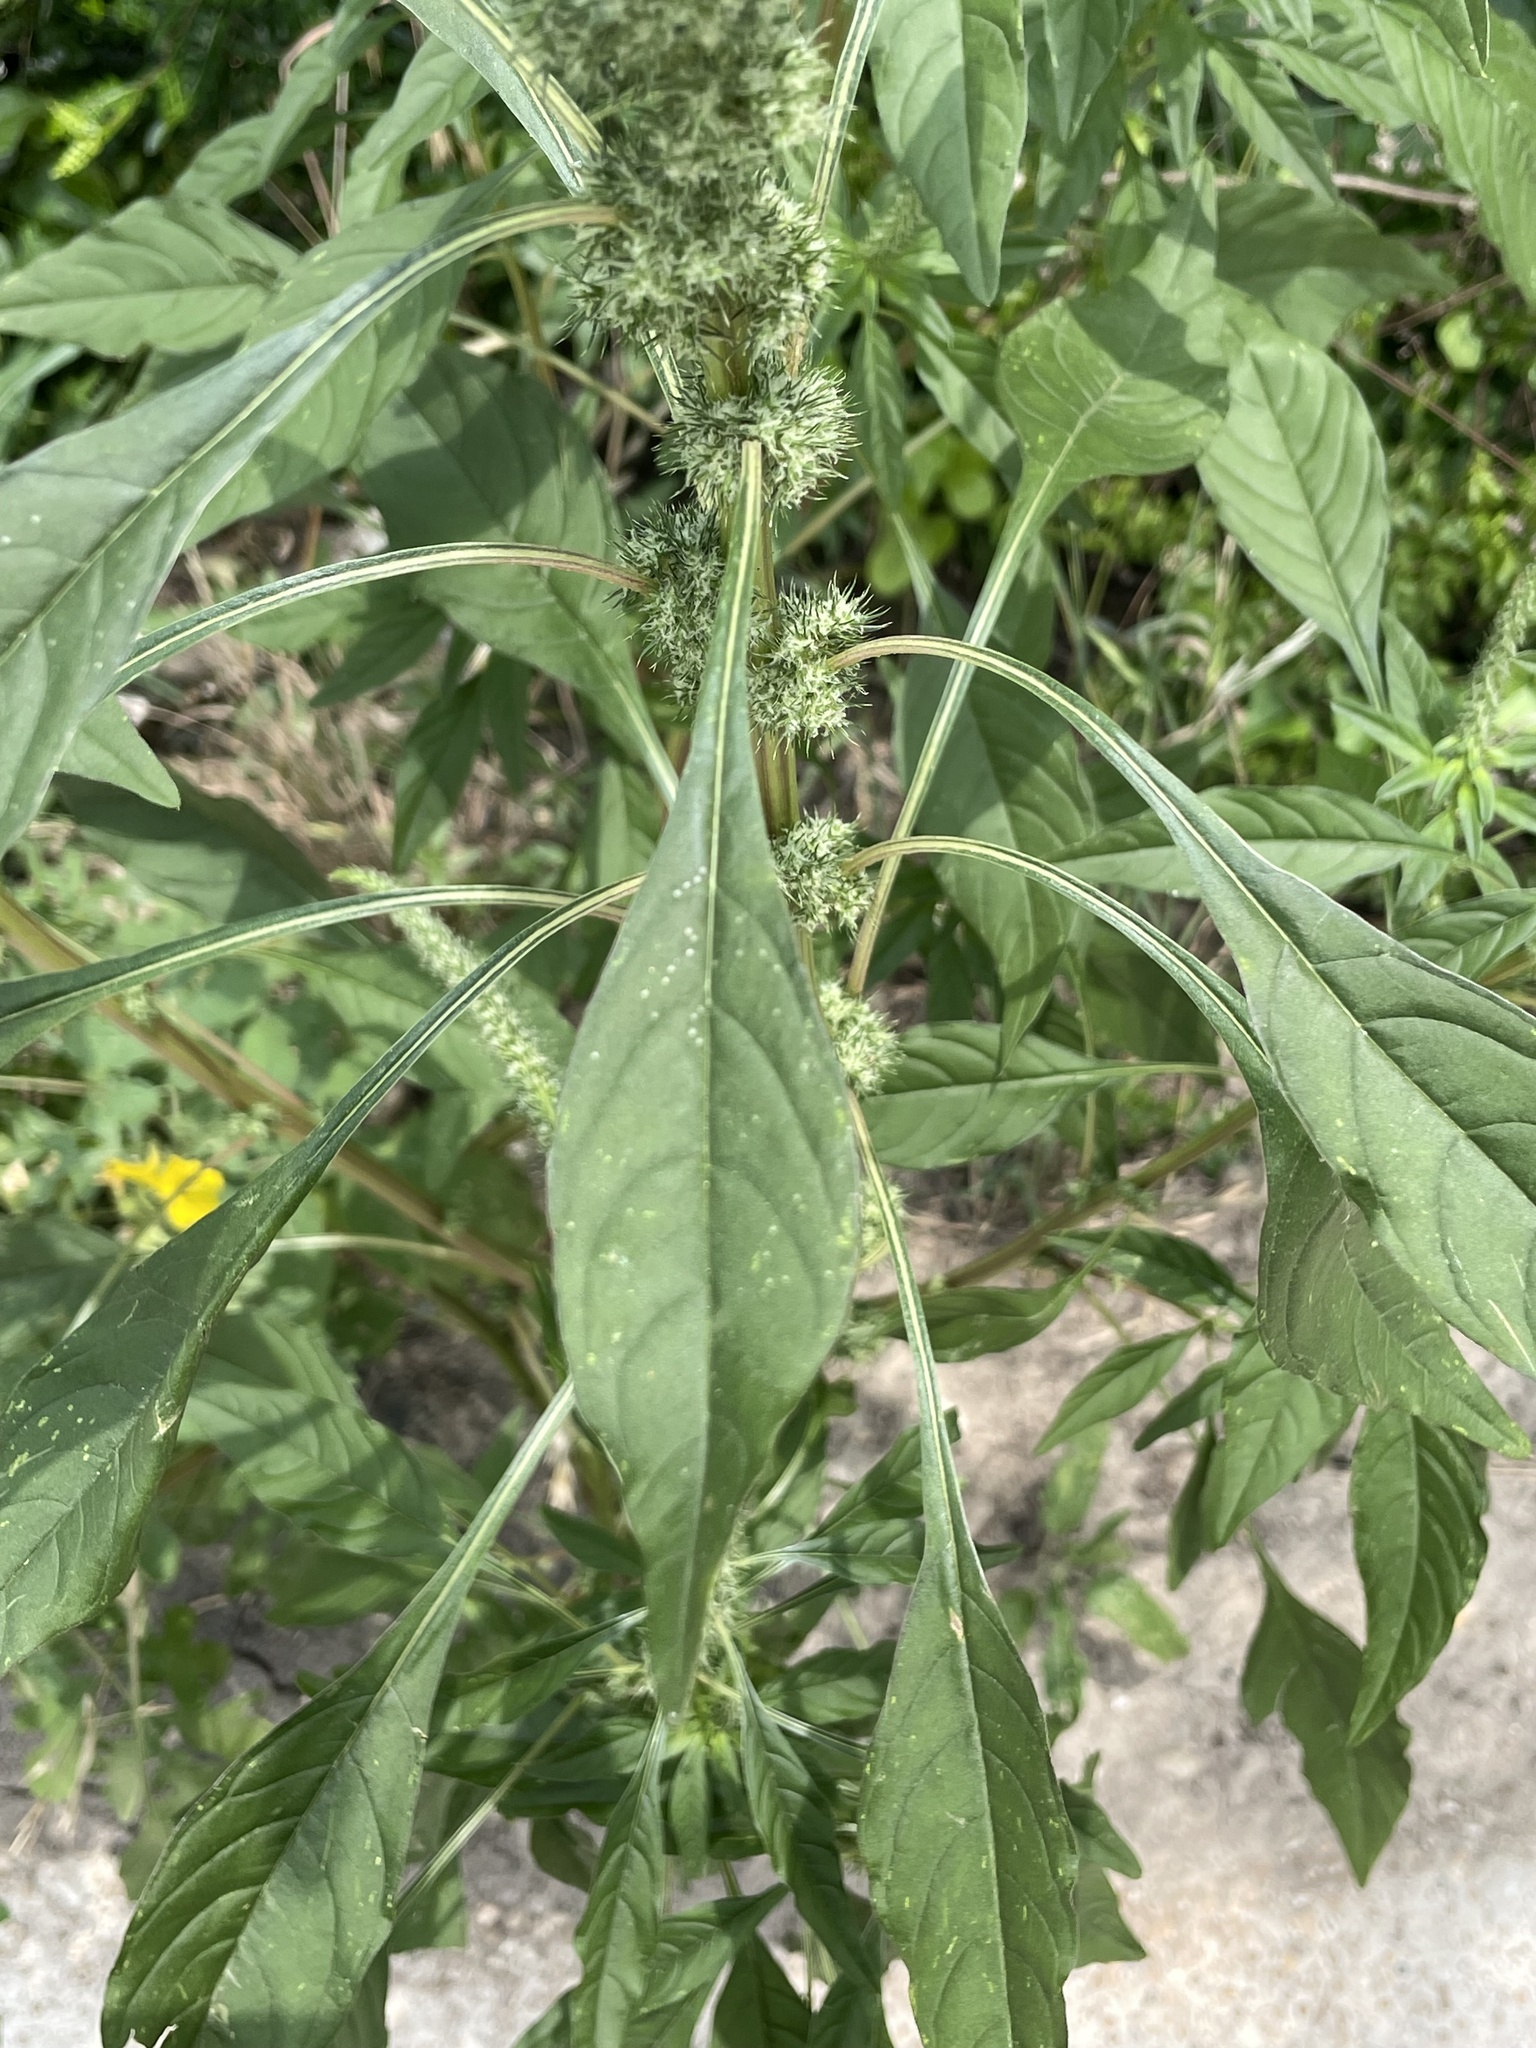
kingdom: Plantae
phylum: Tracheophyta
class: Magnoliopsida
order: Caryophyllales
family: Amaranthaceae
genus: Amaranthus
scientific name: Amaranthus palmeri
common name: Dioecious amaranth
